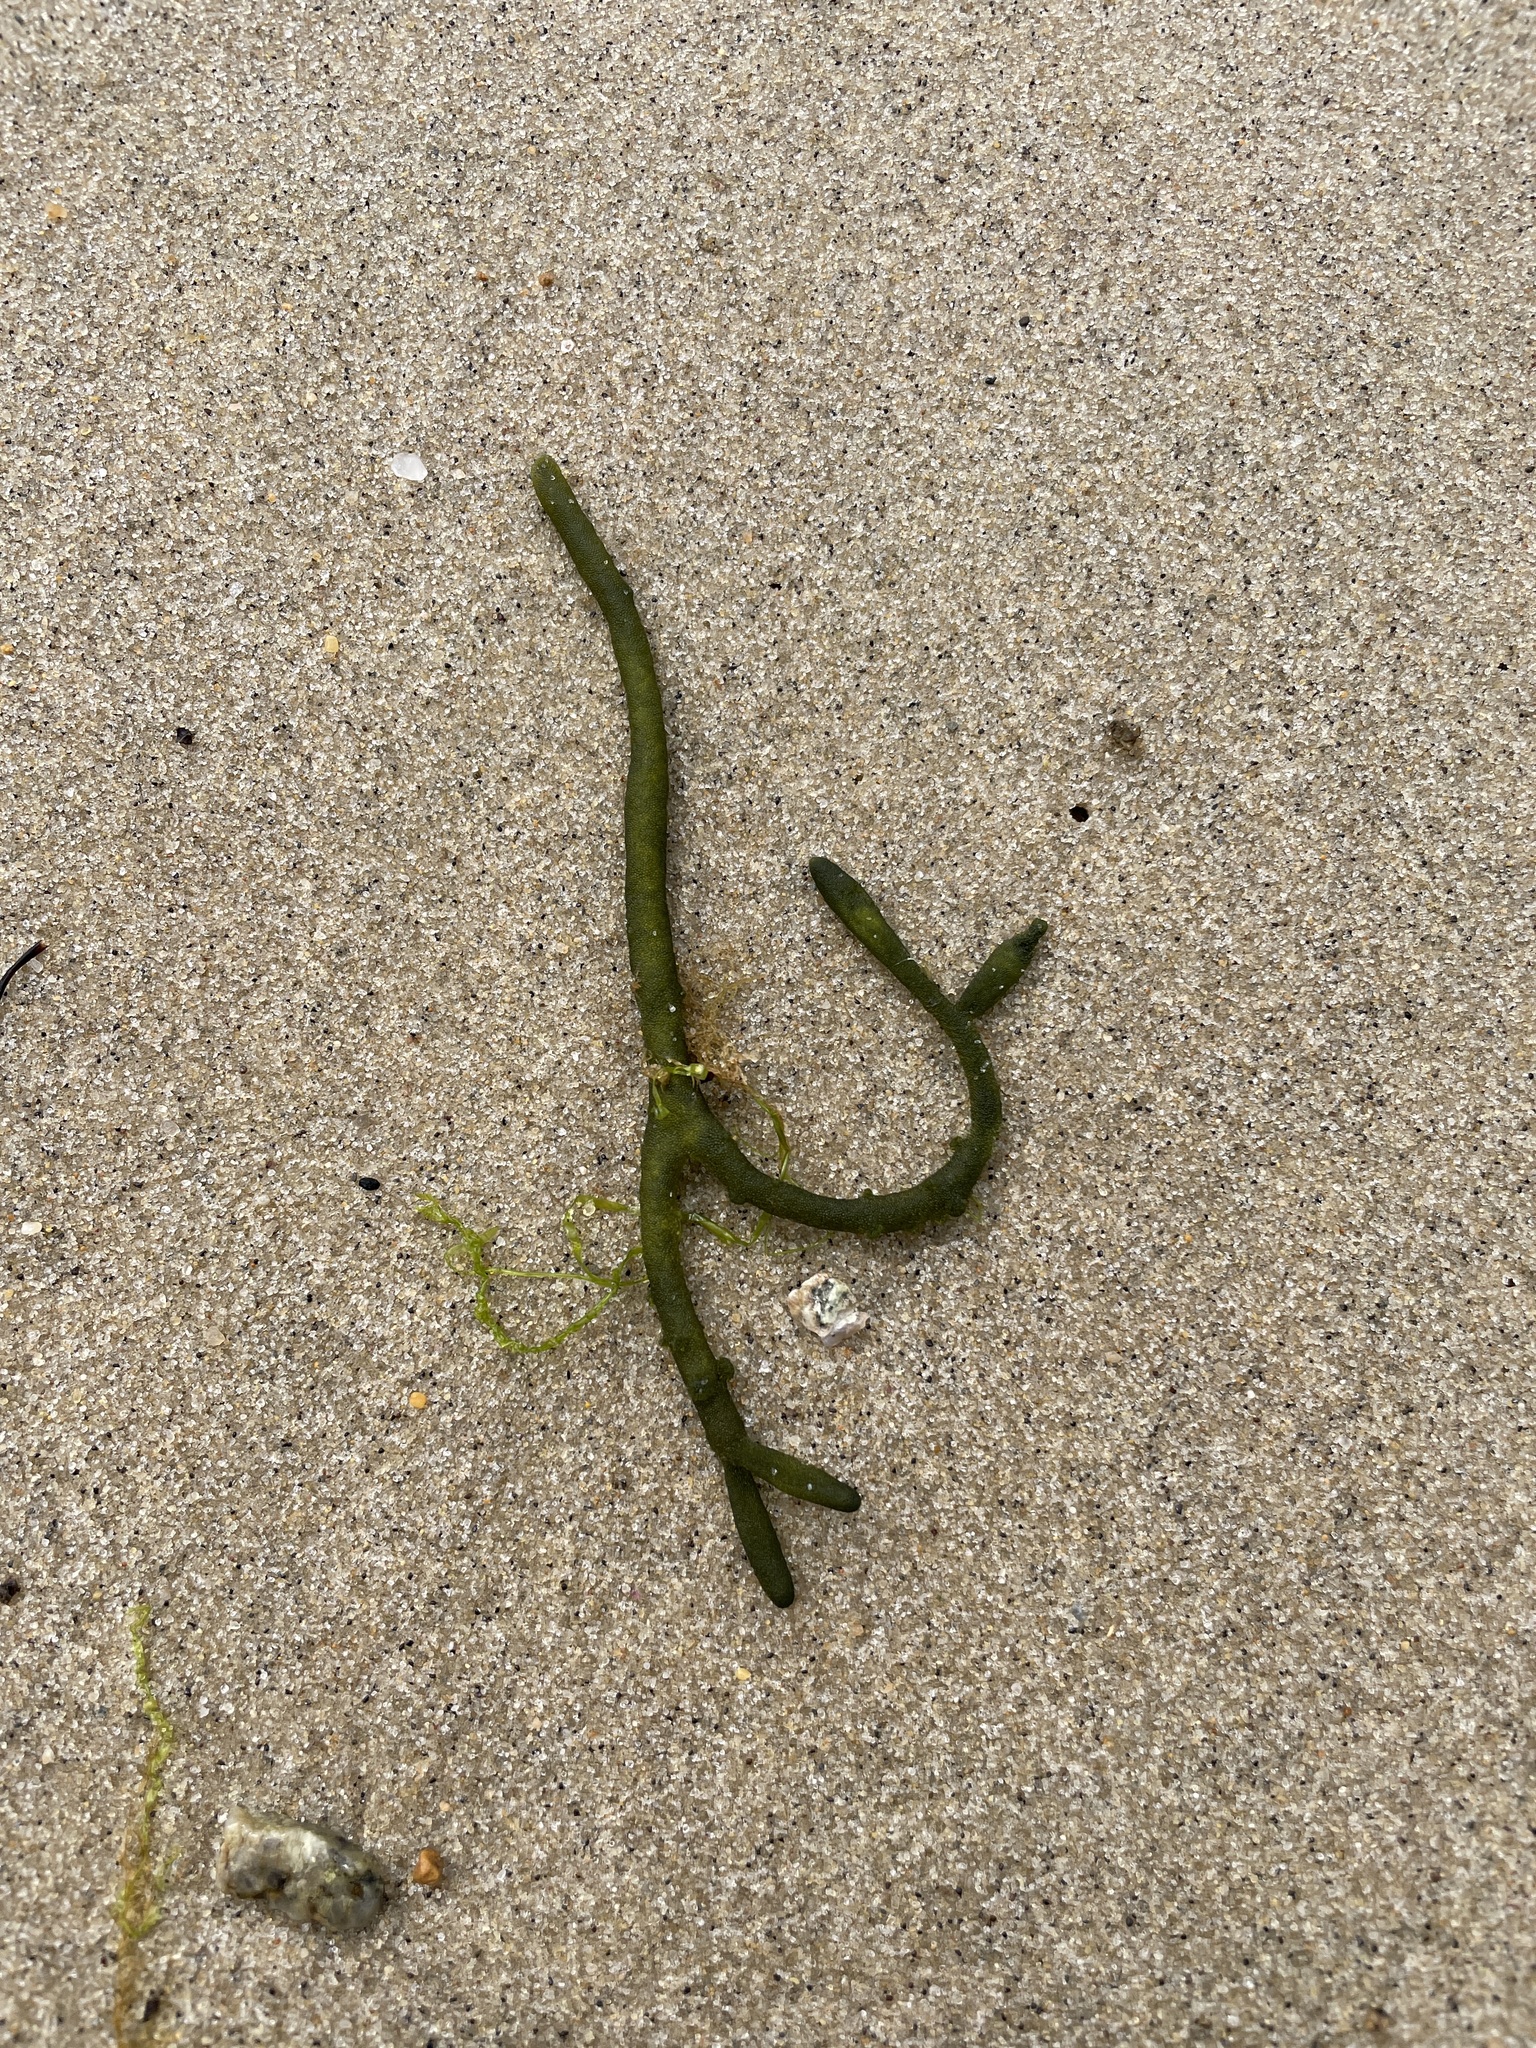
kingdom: Plantae
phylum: Chlorophyta
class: Ulvophyceae
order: Bryopsidales
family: Codiaceae
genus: Codium
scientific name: Codium fragile
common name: Dead man's fingers
